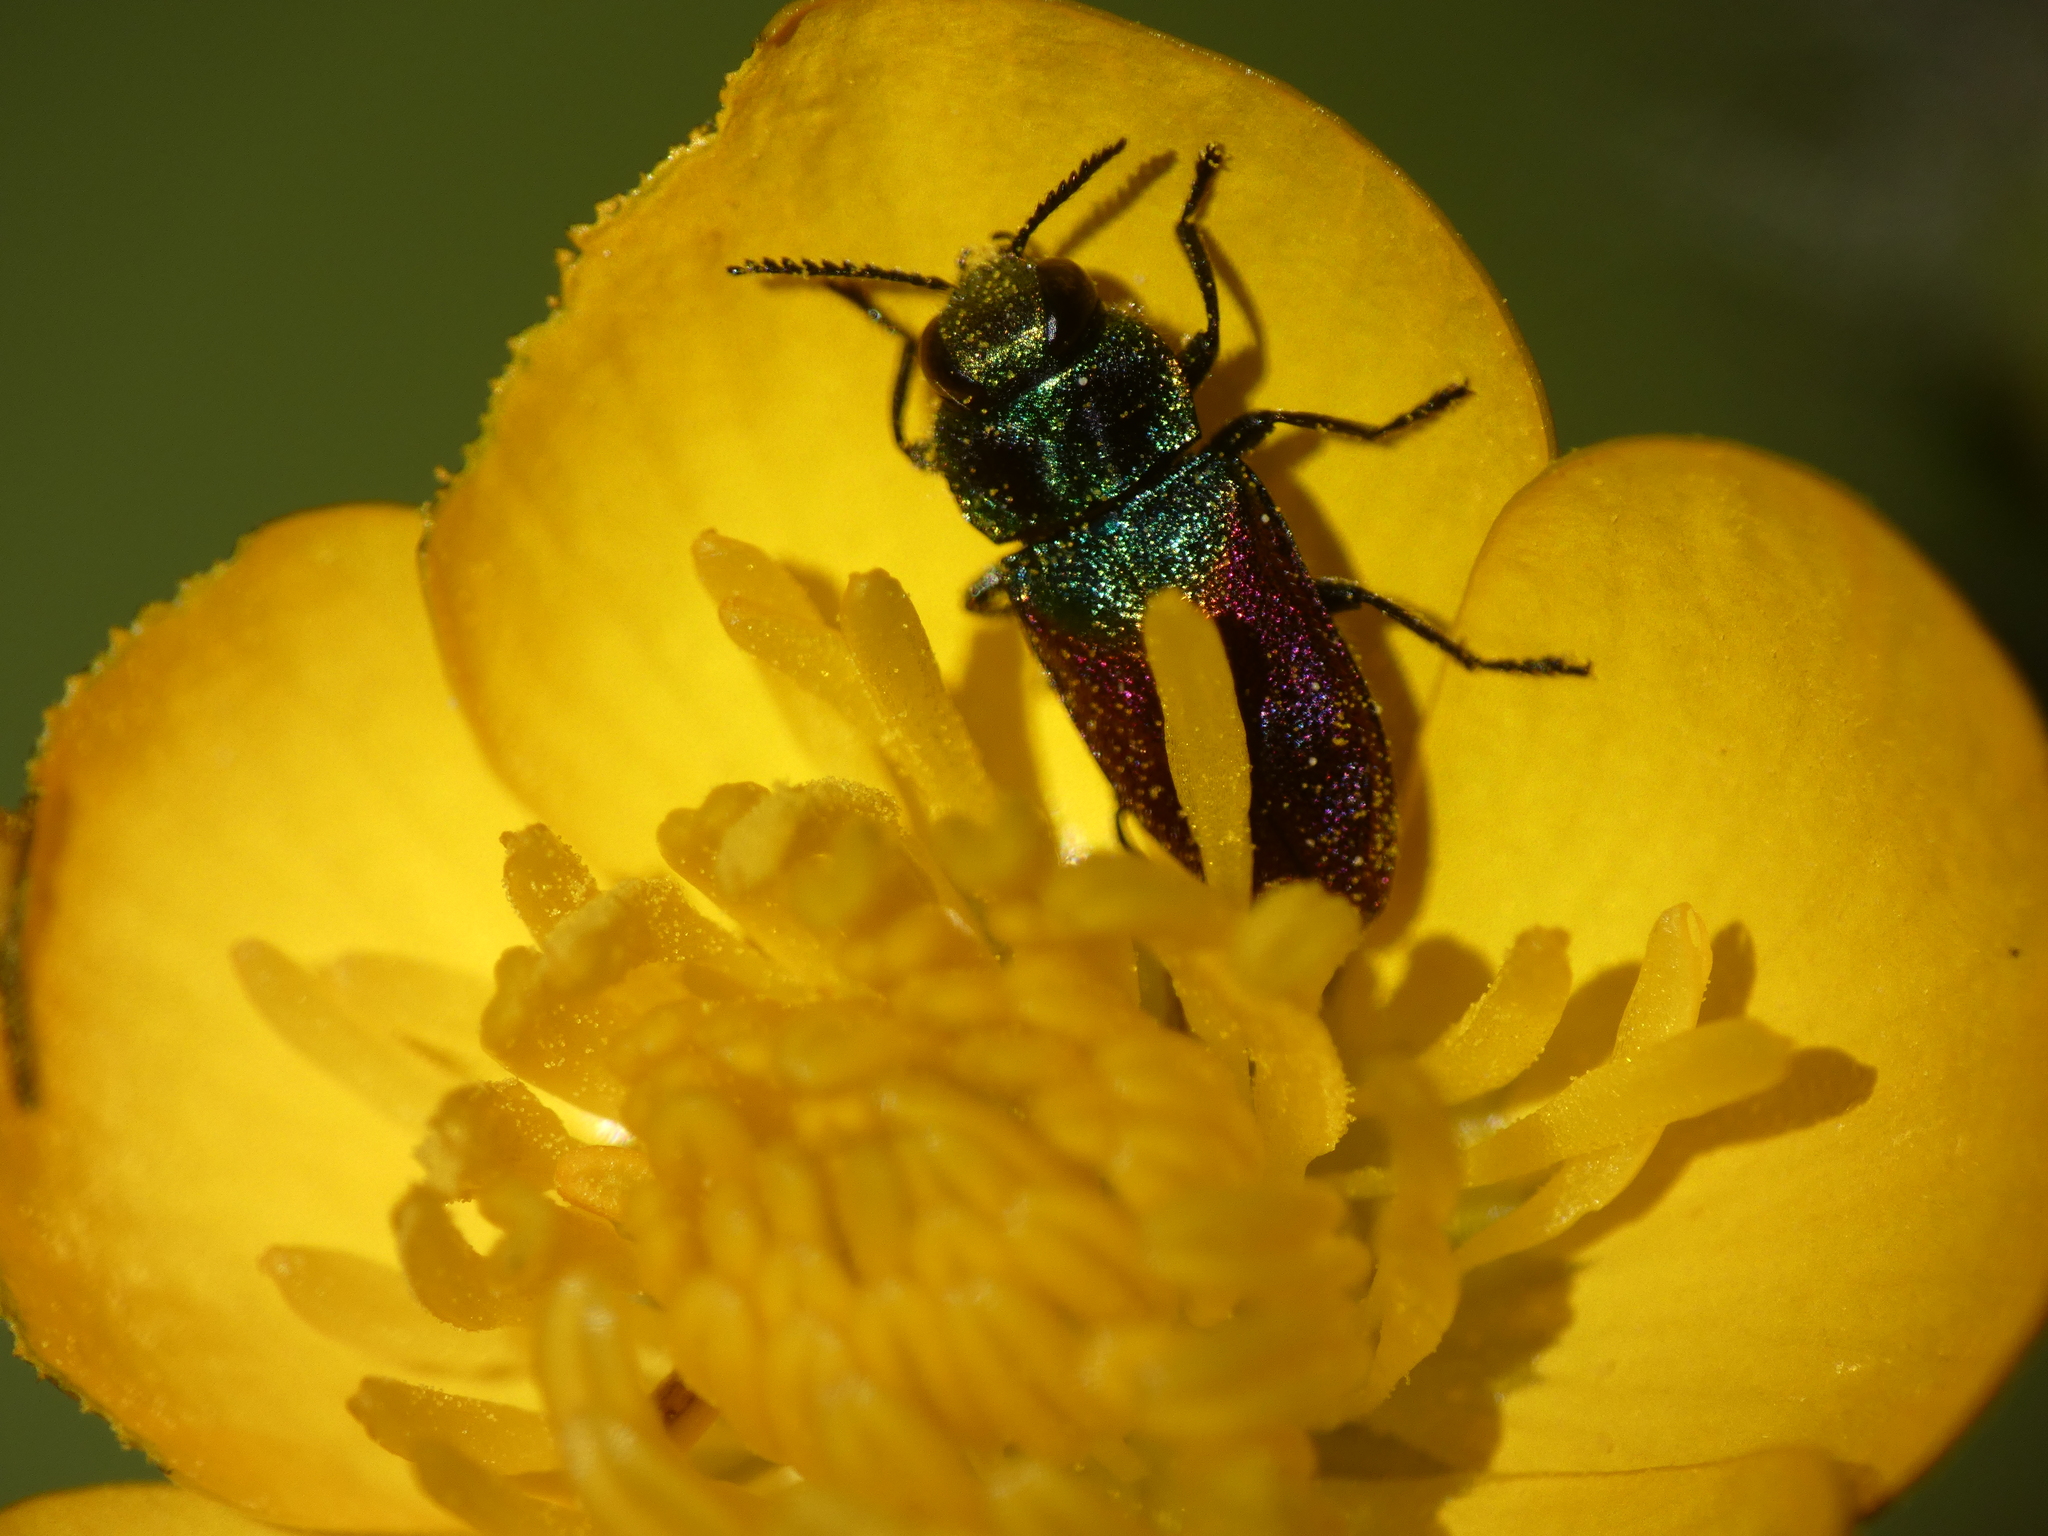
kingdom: Animalia
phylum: Arthropoda
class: Insecta
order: Coleoptera
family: Buprestidae
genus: Anthaxia
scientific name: Anthaxia semicuprea
